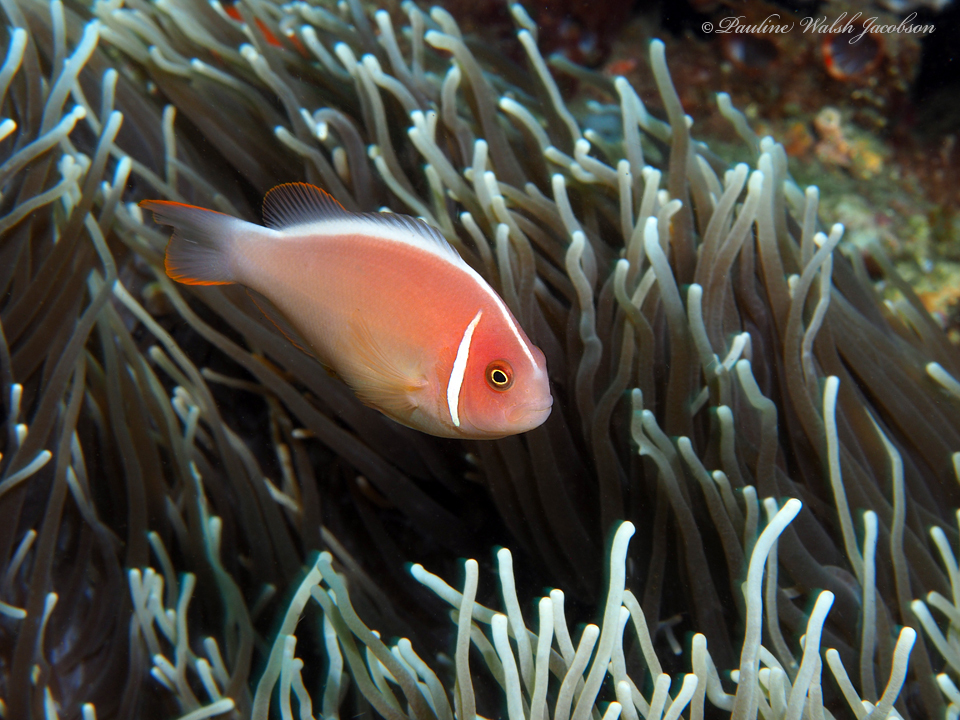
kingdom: Animalia
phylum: Chordata
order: Perciformes
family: Pomacentridae
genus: Amphiprion
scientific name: Amphiprion perideraion
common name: Pink anemonefish
